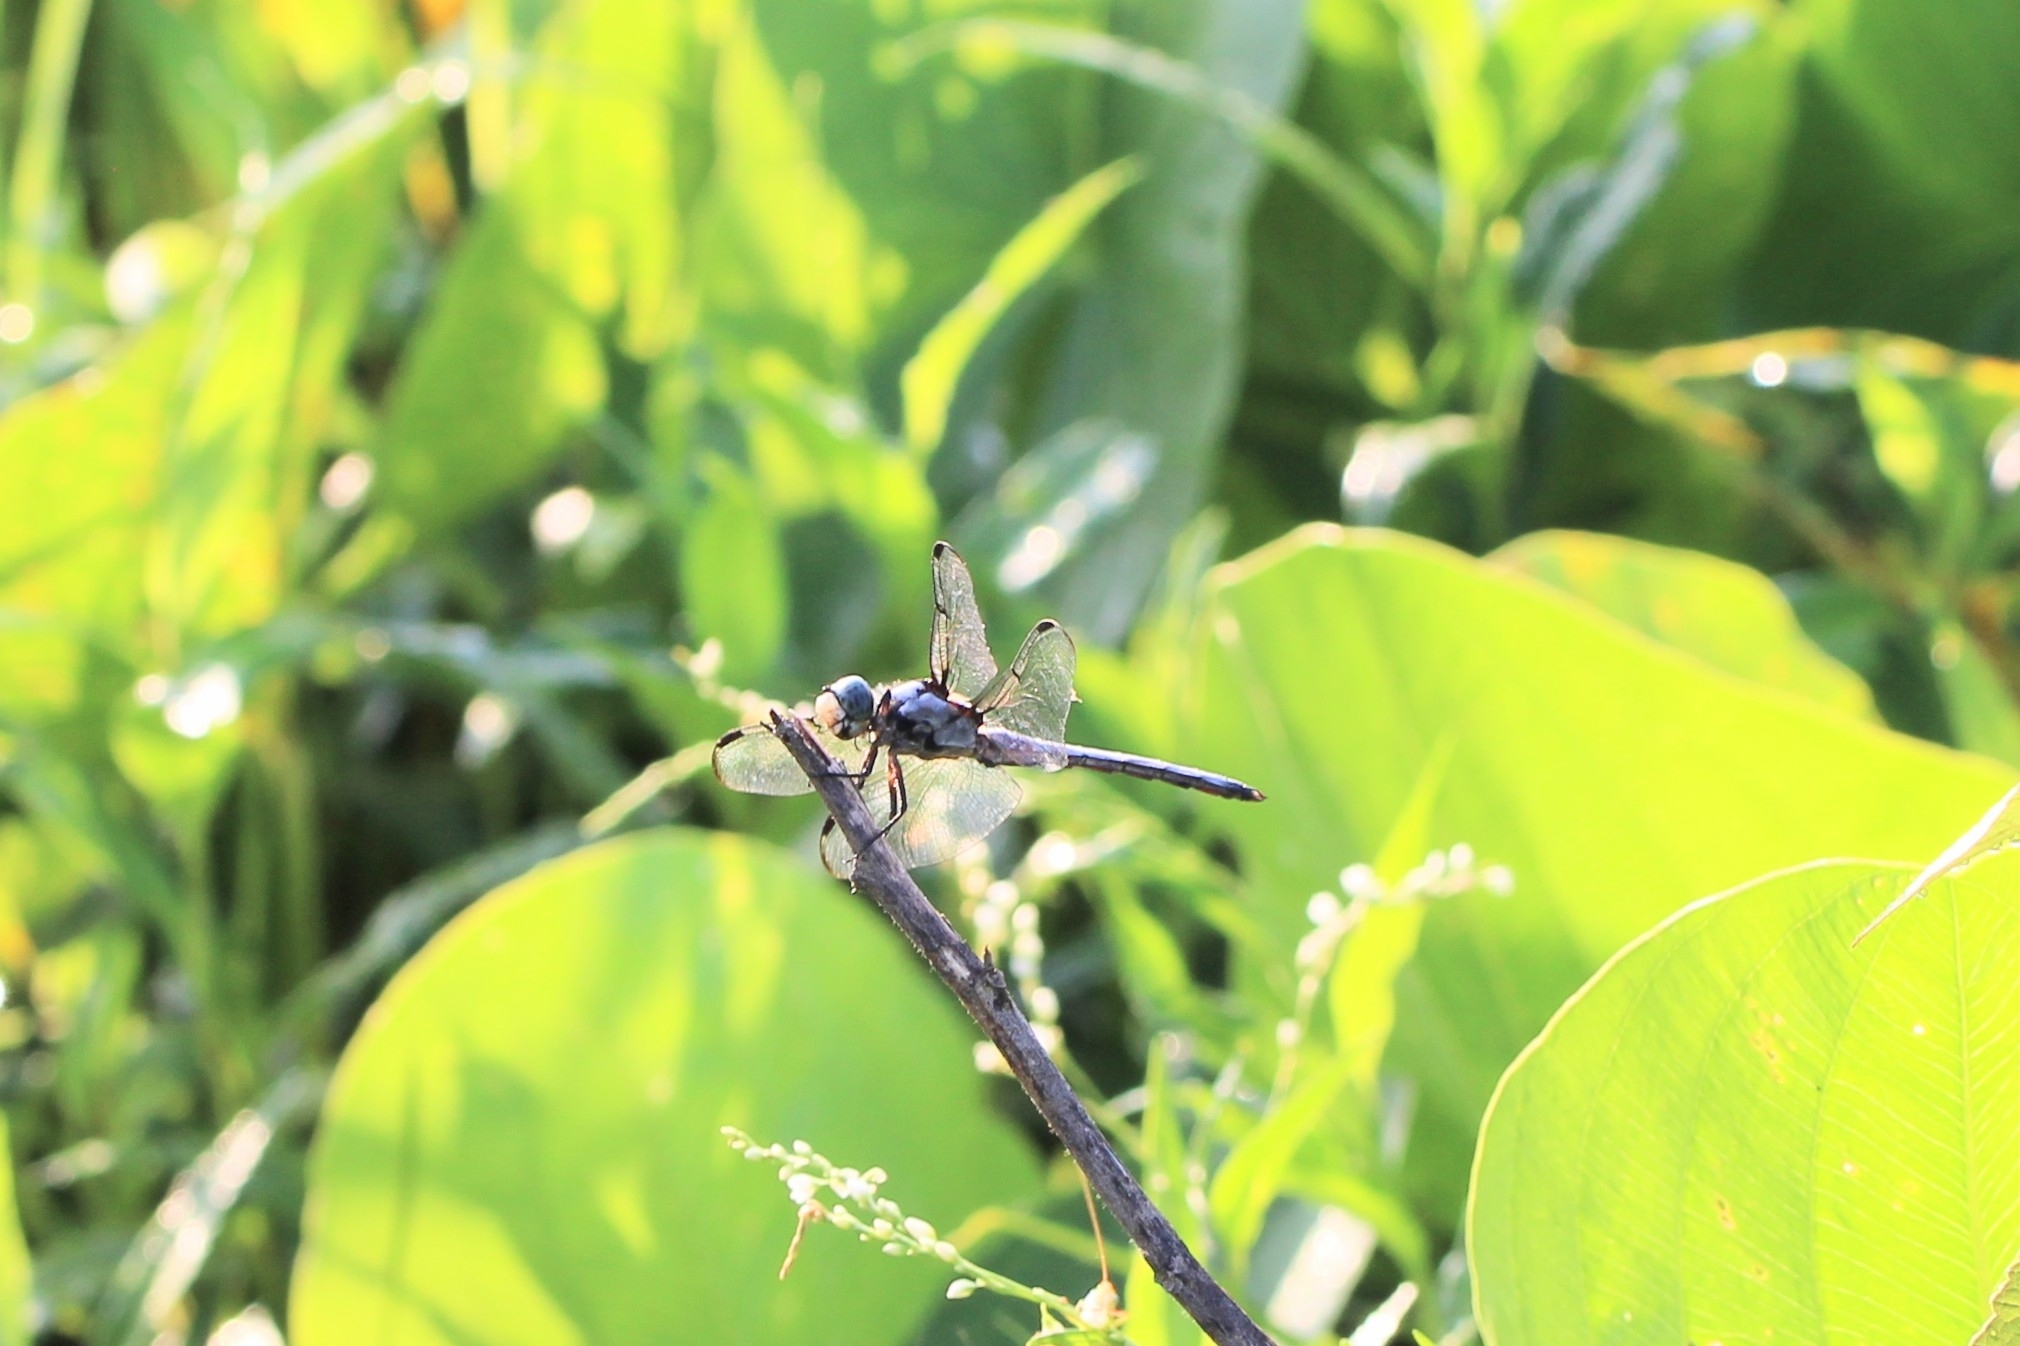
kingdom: Animalia
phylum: Arthropoda
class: Insecta
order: Odonata
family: Libellulidae
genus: Libellula
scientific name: Libellula vibrans
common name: Great blue skimmer
